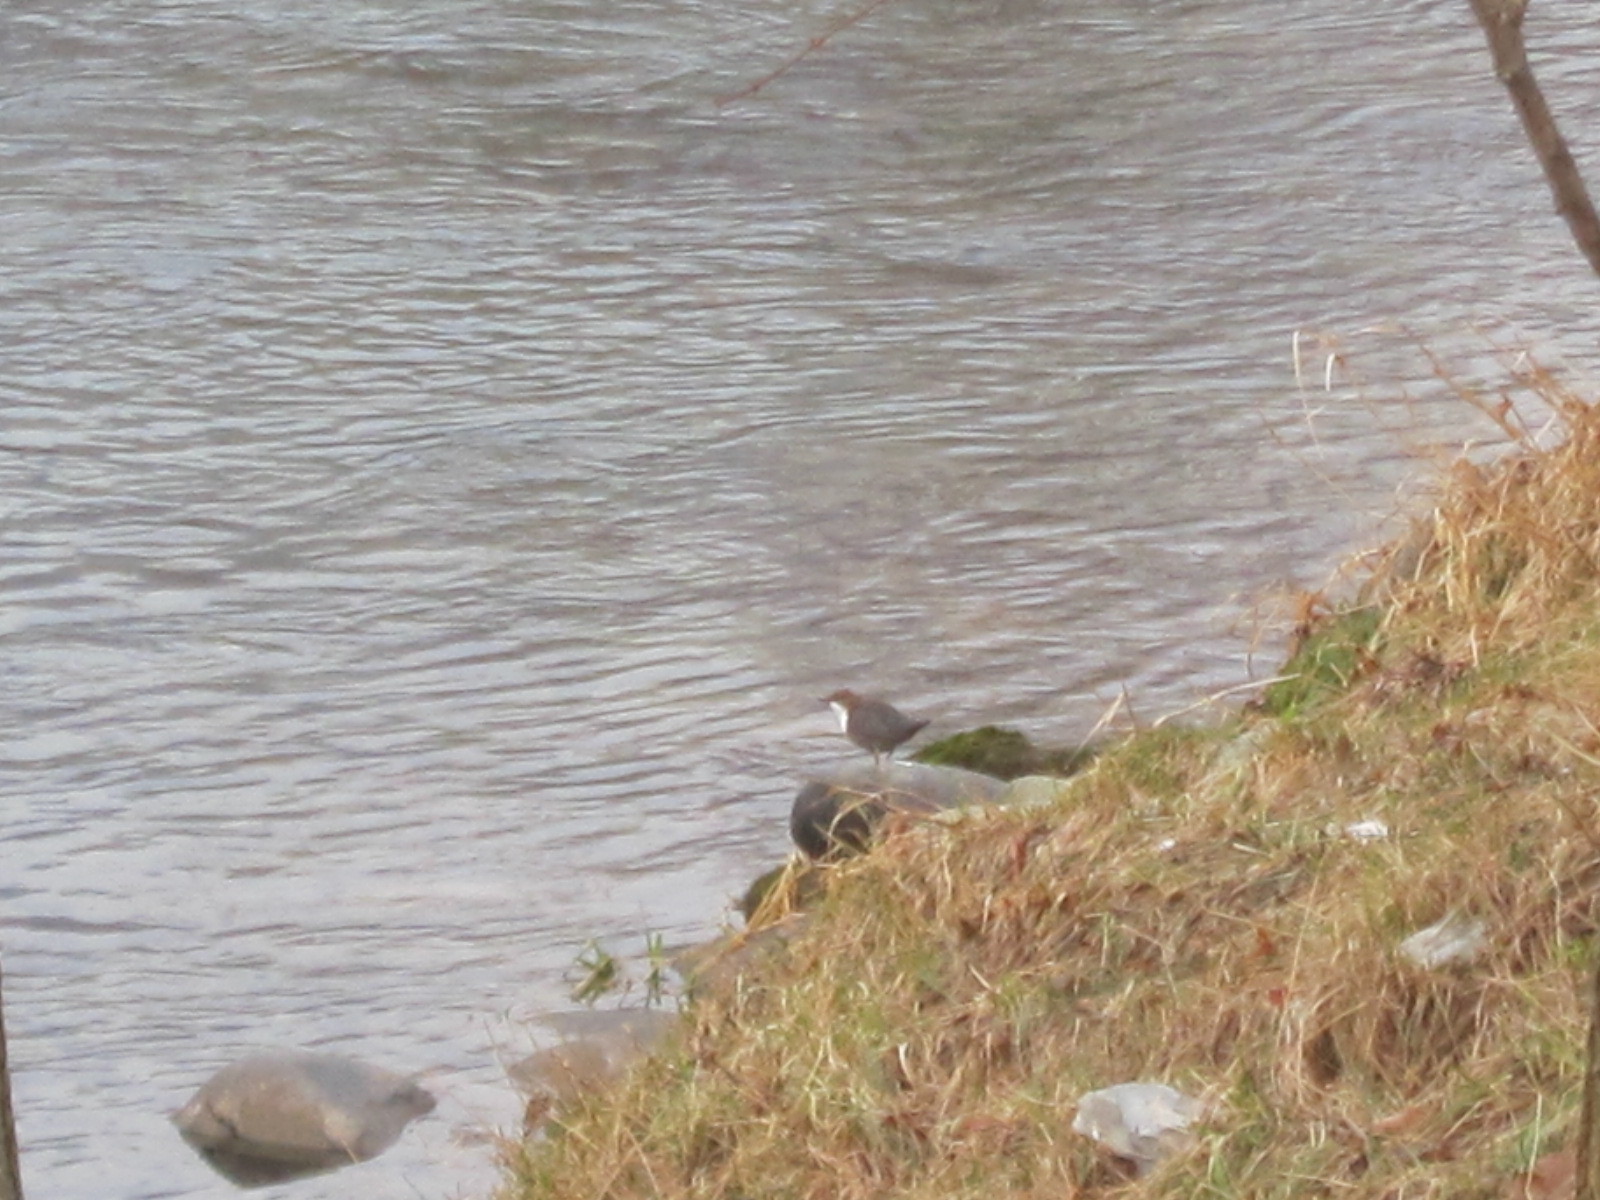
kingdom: Animalia
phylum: Chordata
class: Aves
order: Passeriformes
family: Cinclidae
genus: Cinclus
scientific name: Cinclus cinclus
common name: White-throated dipper
